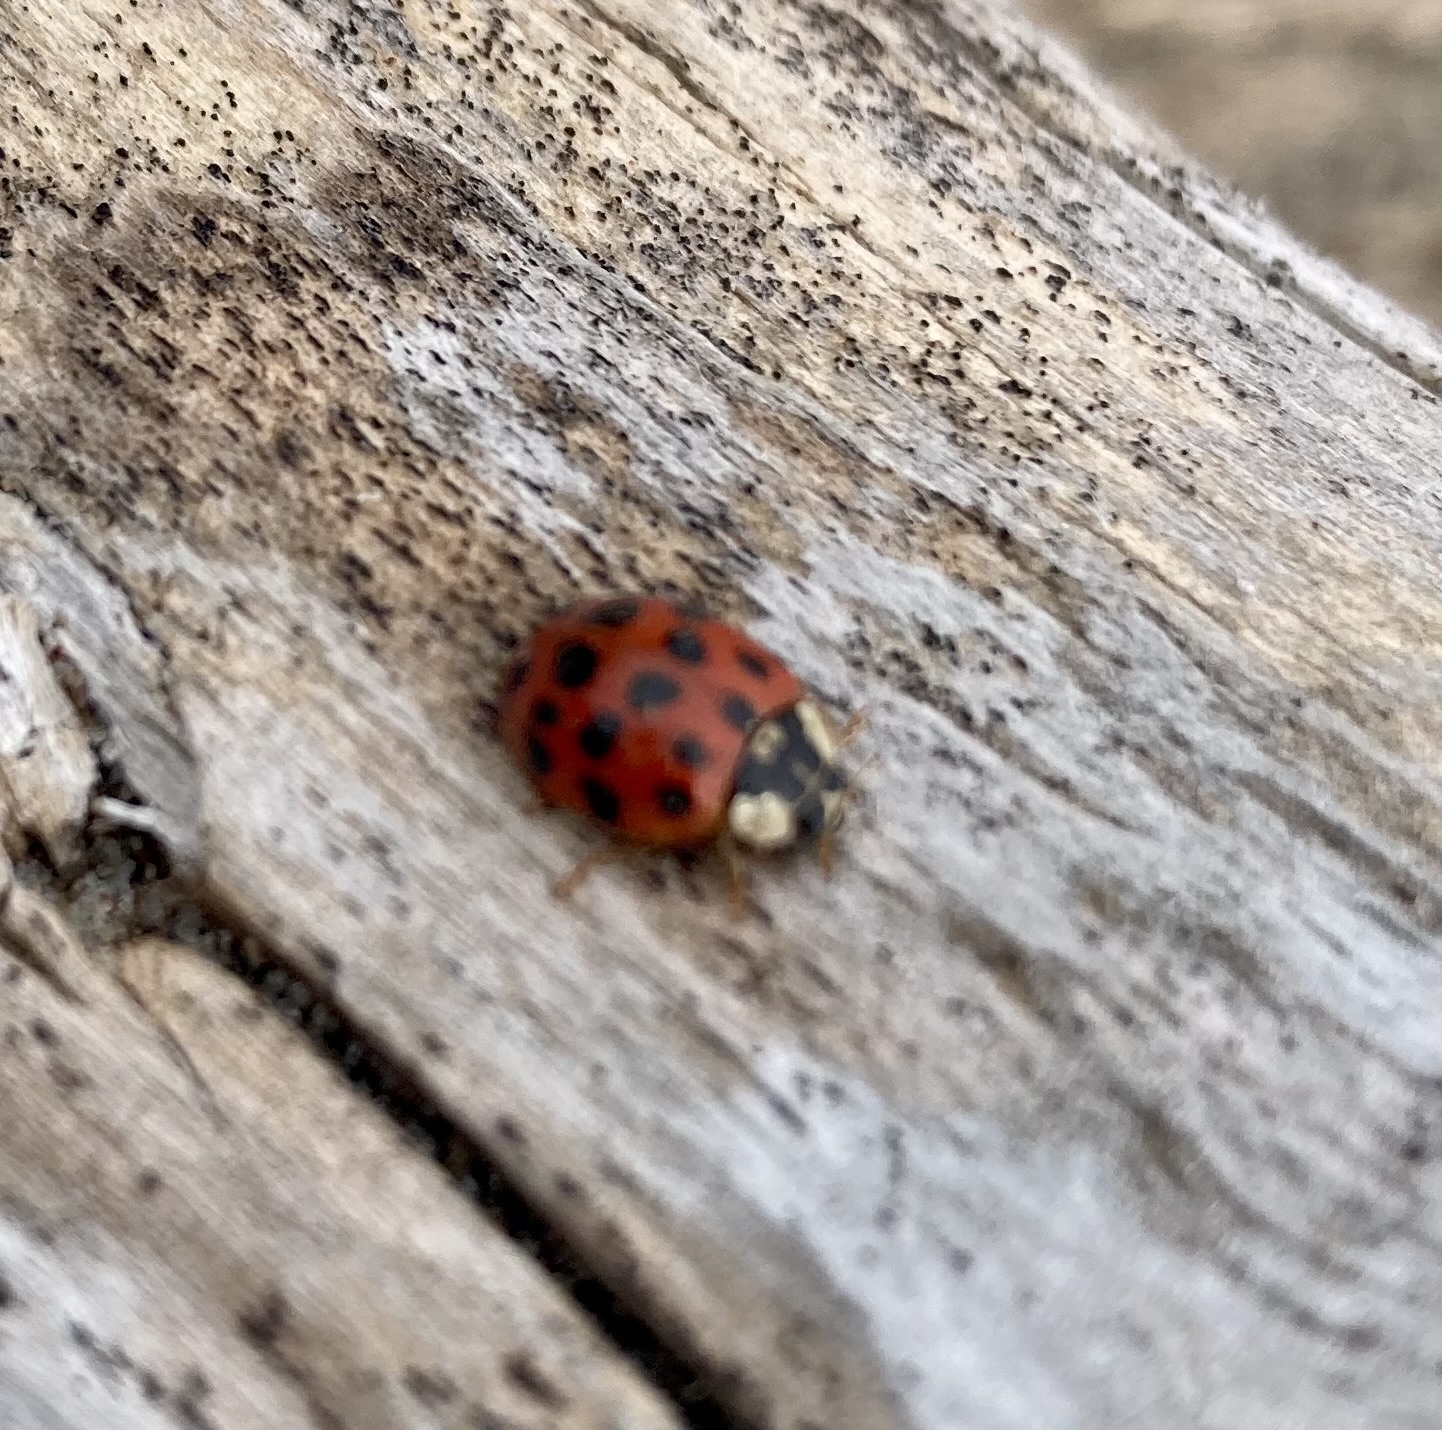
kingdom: Animalia
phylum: Arthropoda
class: Insecta
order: Coleoptera
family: Coccinellidae
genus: Harmonia
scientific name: Harmonia axyridis
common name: Harlequin ladybird
